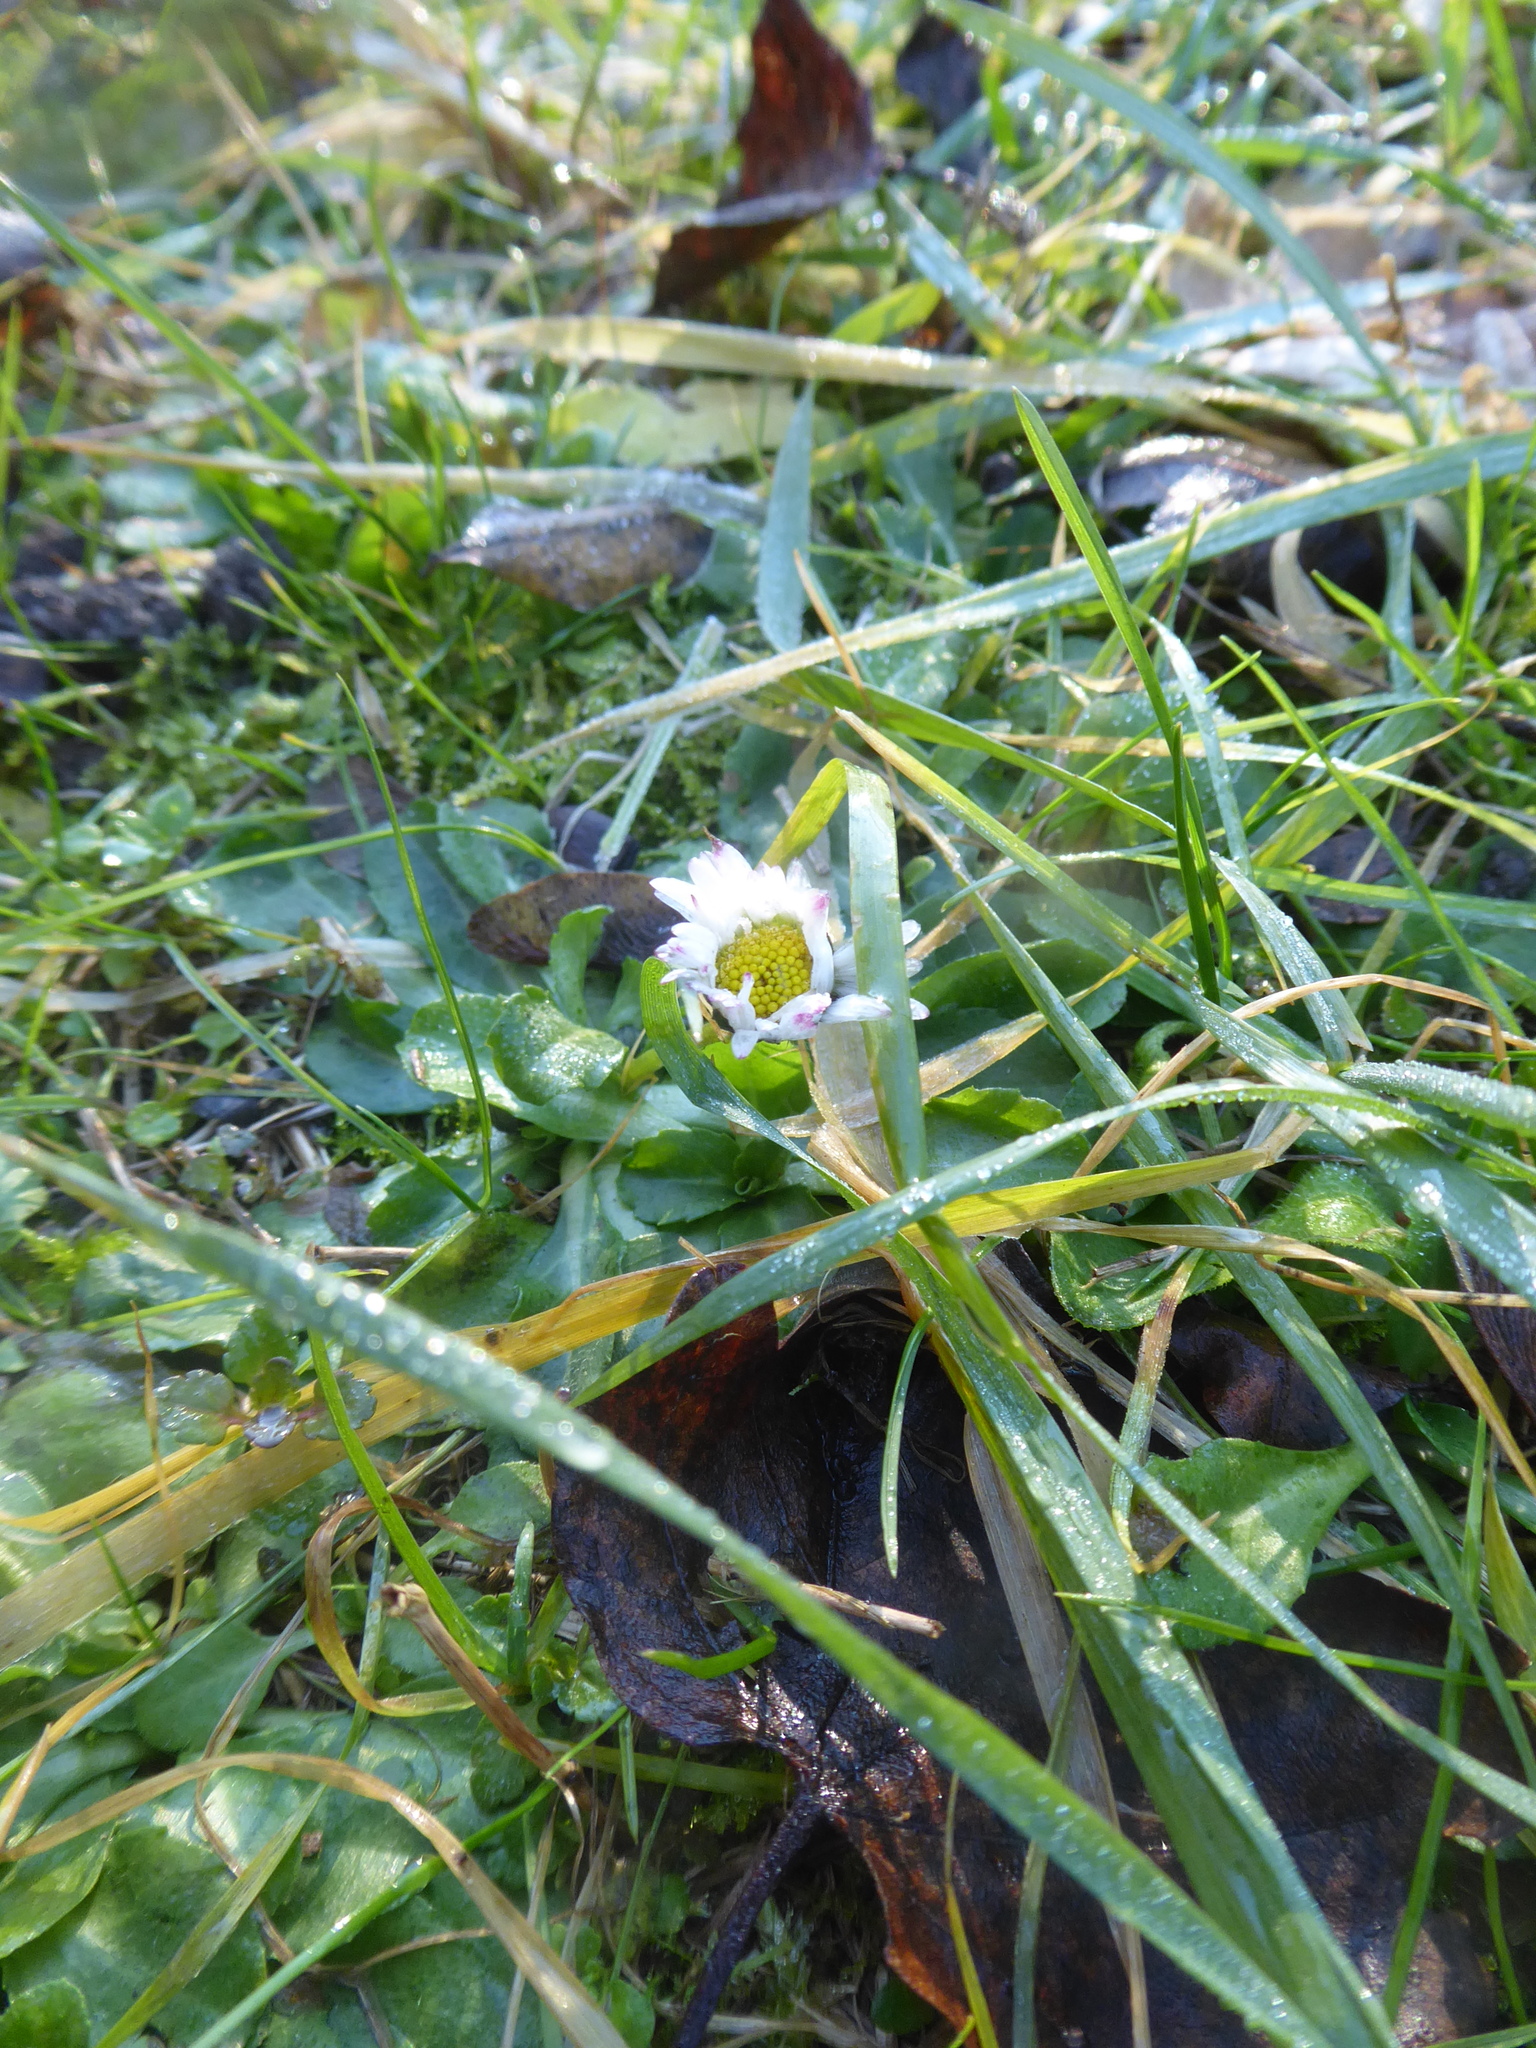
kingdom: Plantae
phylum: Tracheophyta
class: Magnoliopsida
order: Asterales
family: Asteraceae
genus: Bellis
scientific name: Bellis perennis
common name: Lawndaisy
